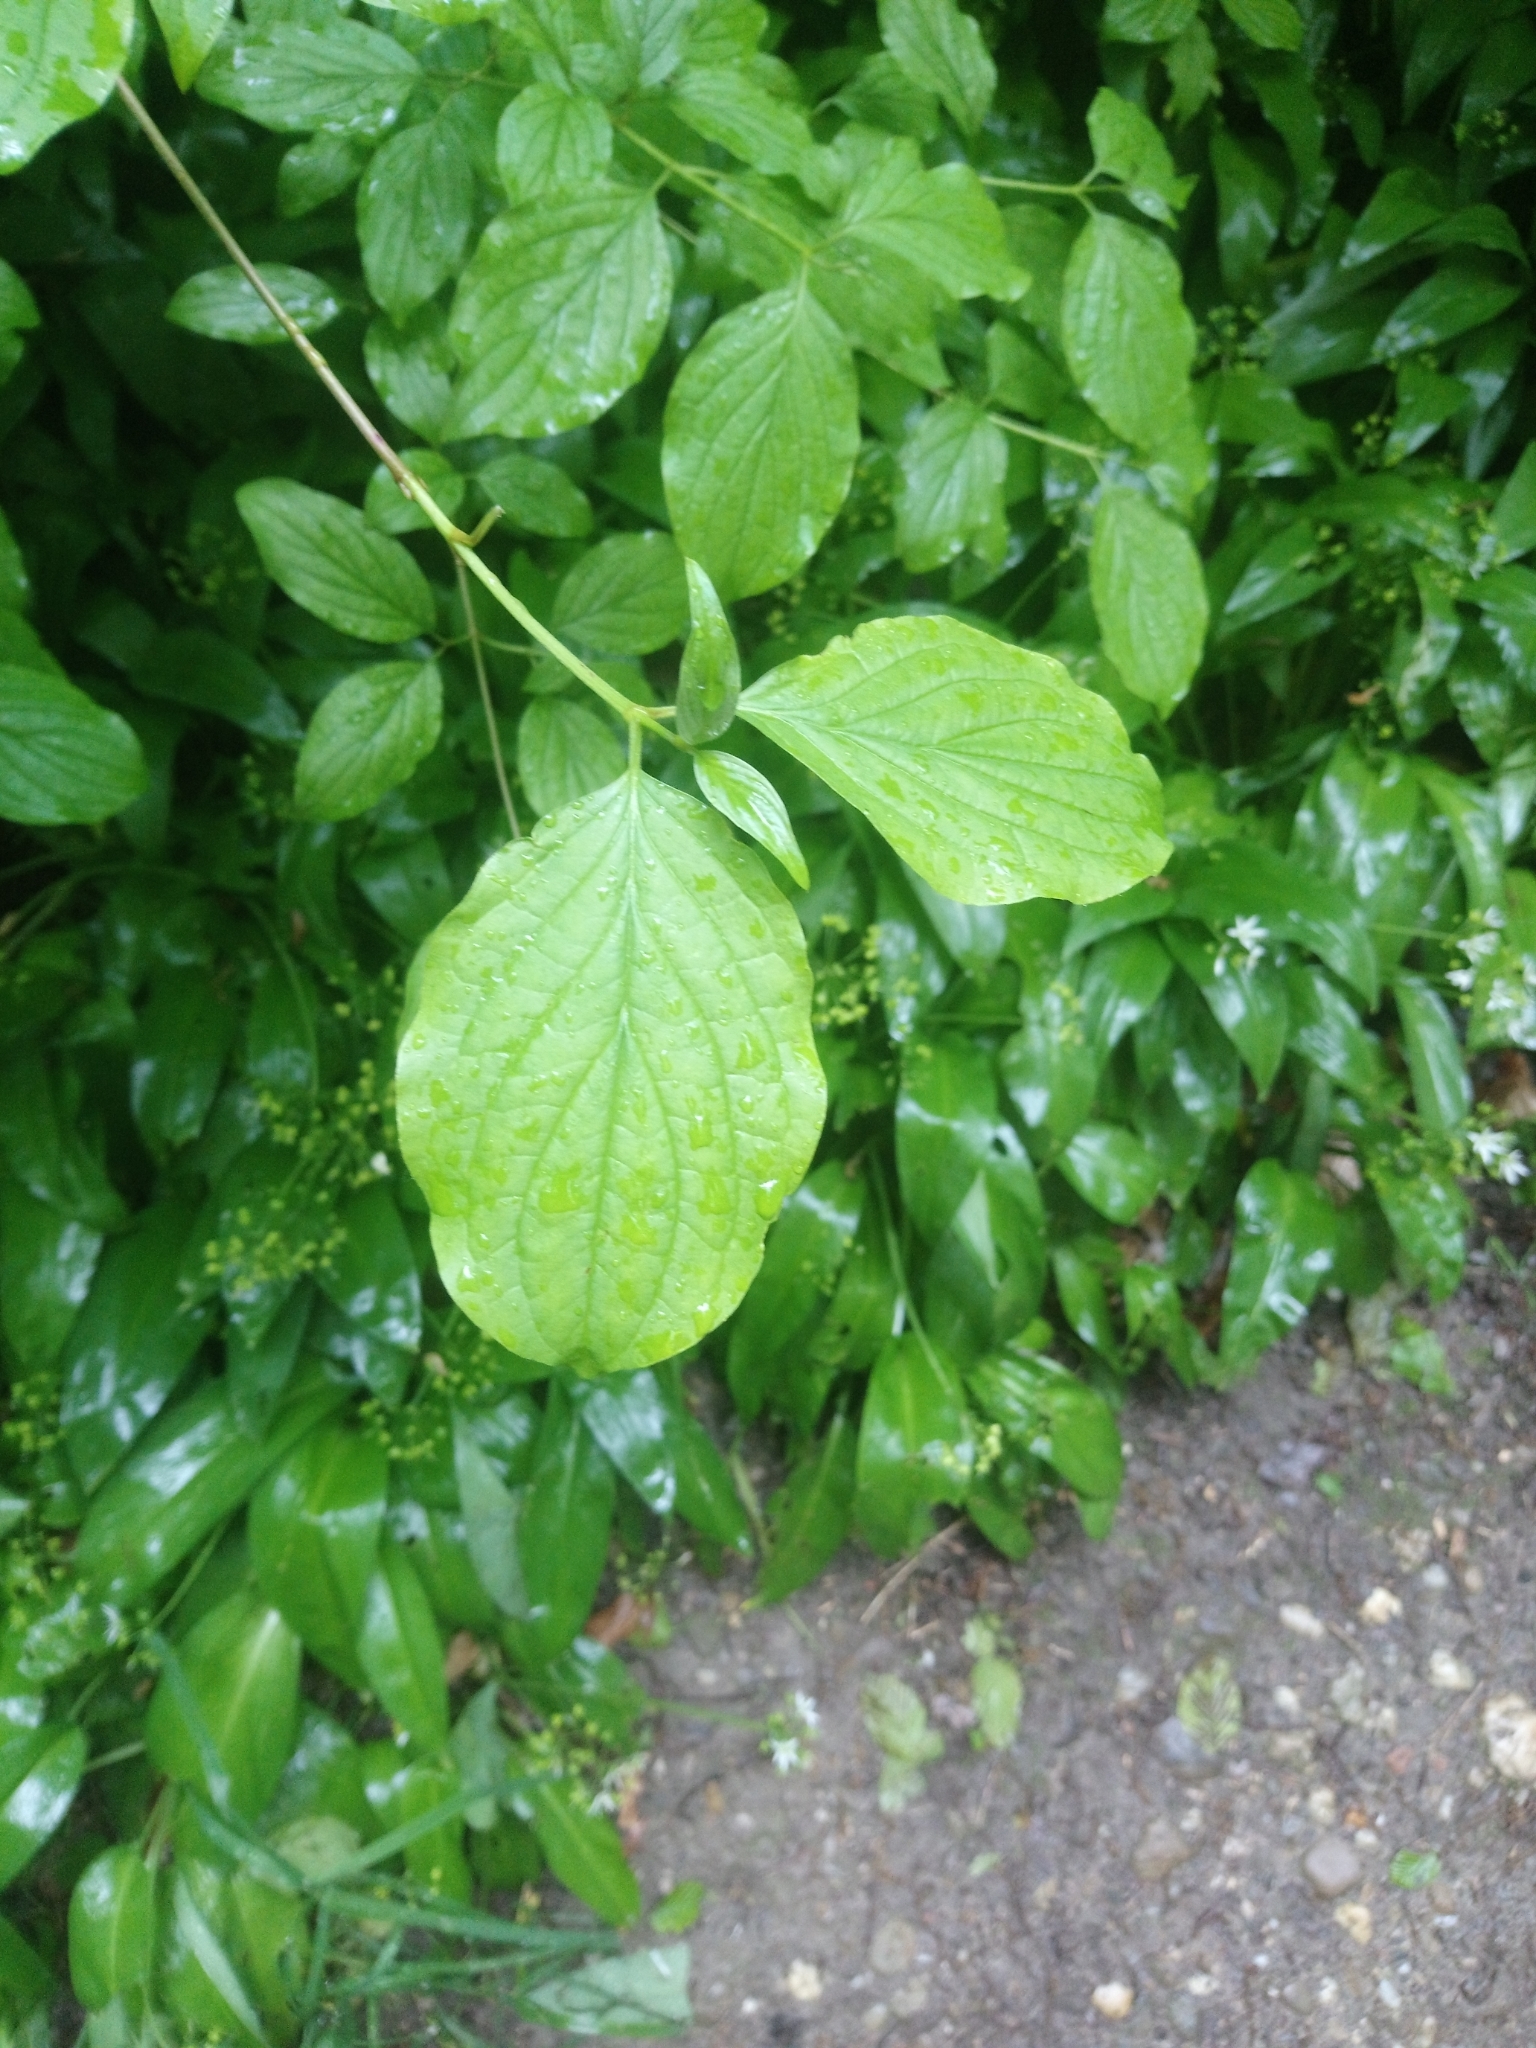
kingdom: Plantae
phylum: Tracheophyta
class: Magnoliopsida
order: Cornales
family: Cornaceae
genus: Cornus
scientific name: Cornus sanguinea
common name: Dogwood
